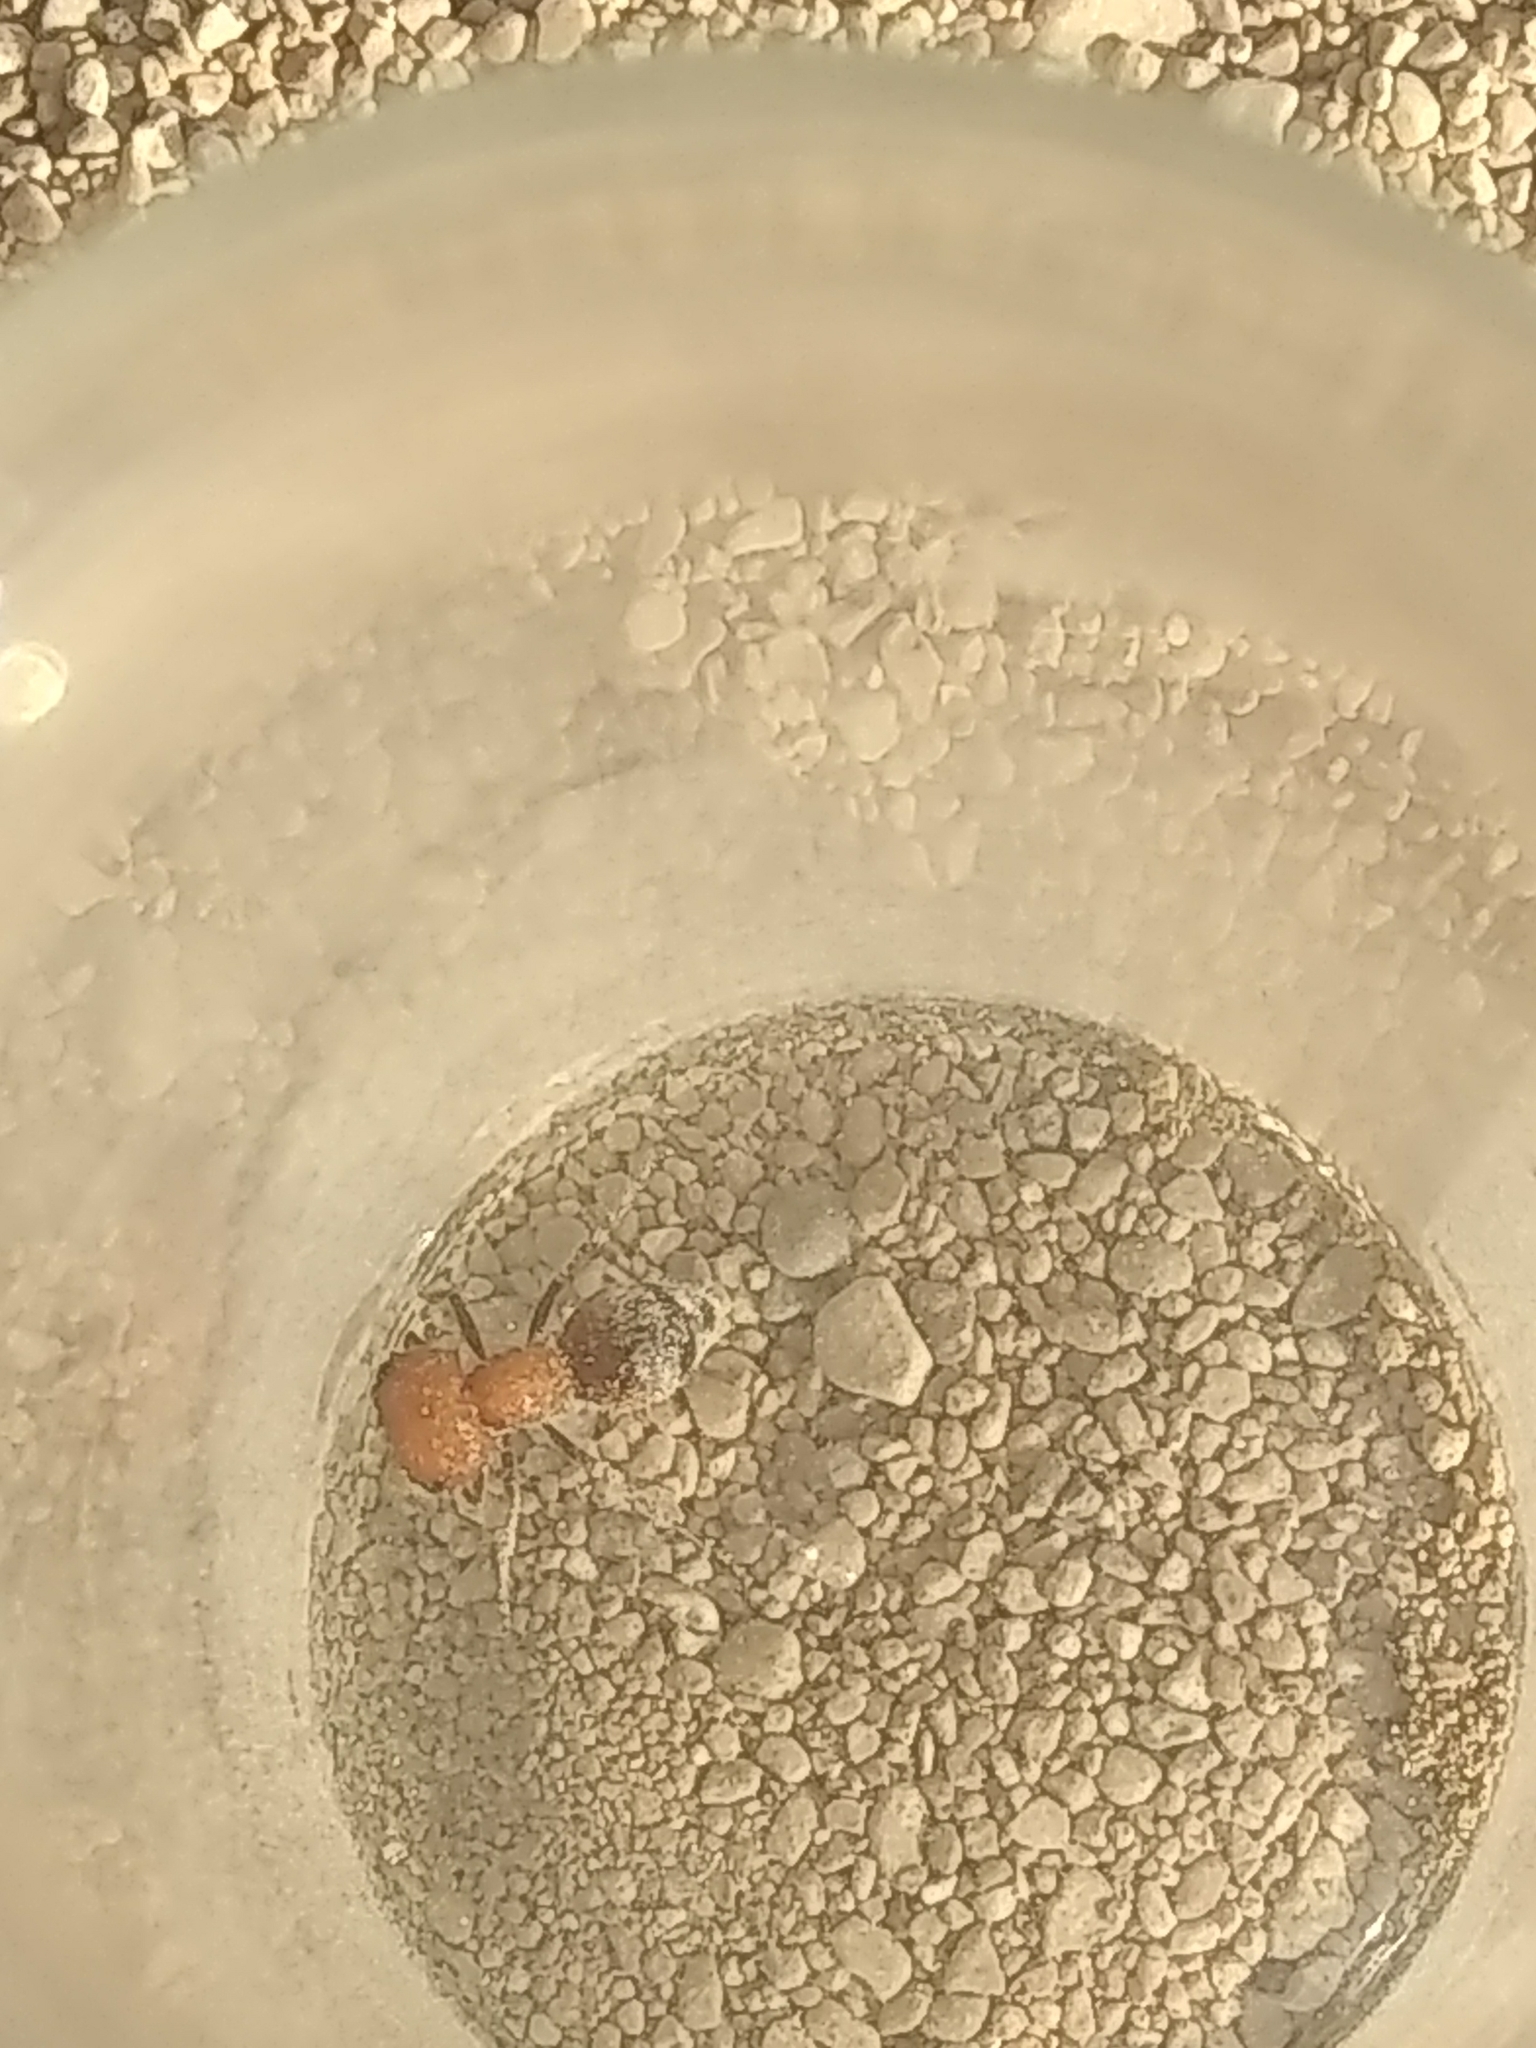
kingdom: Animalia
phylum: Arthropoda
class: Insecta
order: Hymenoptera
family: Mutillidae
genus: Myrmilloides
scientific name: Myrmilloides
